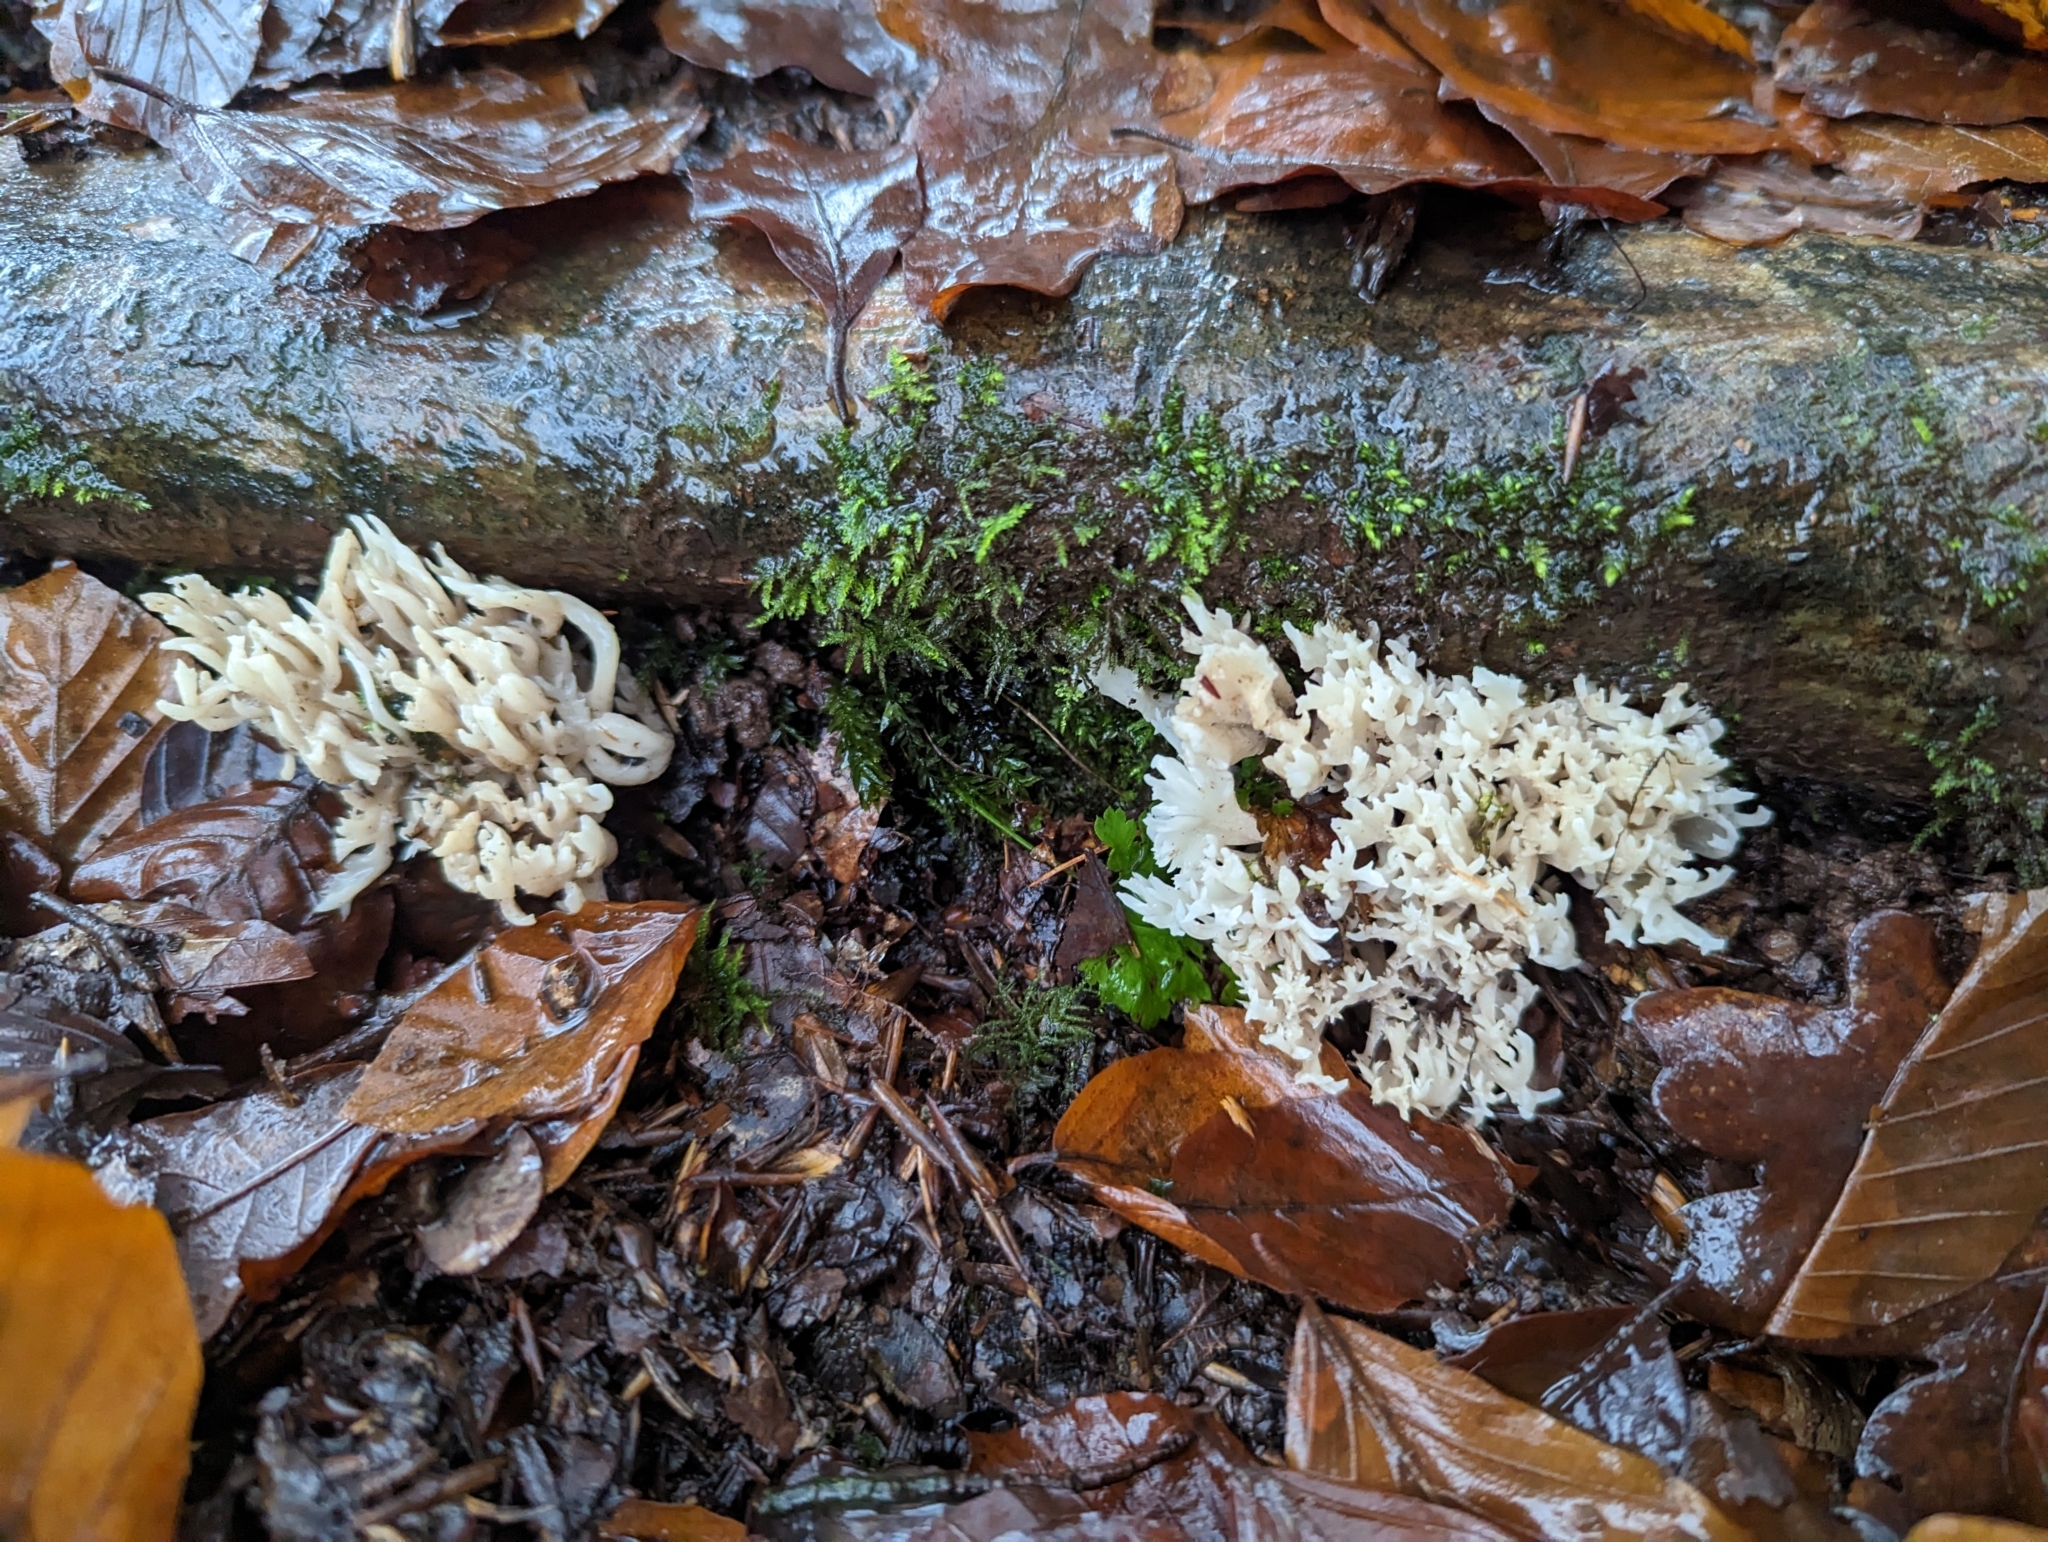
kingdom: Fungi
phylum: Basidiomycota
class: Agaricomycetes
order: Cantharellales
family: Hydnaceae
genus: Clavulina
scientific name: Clavulina coralloides
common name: Crested coral
